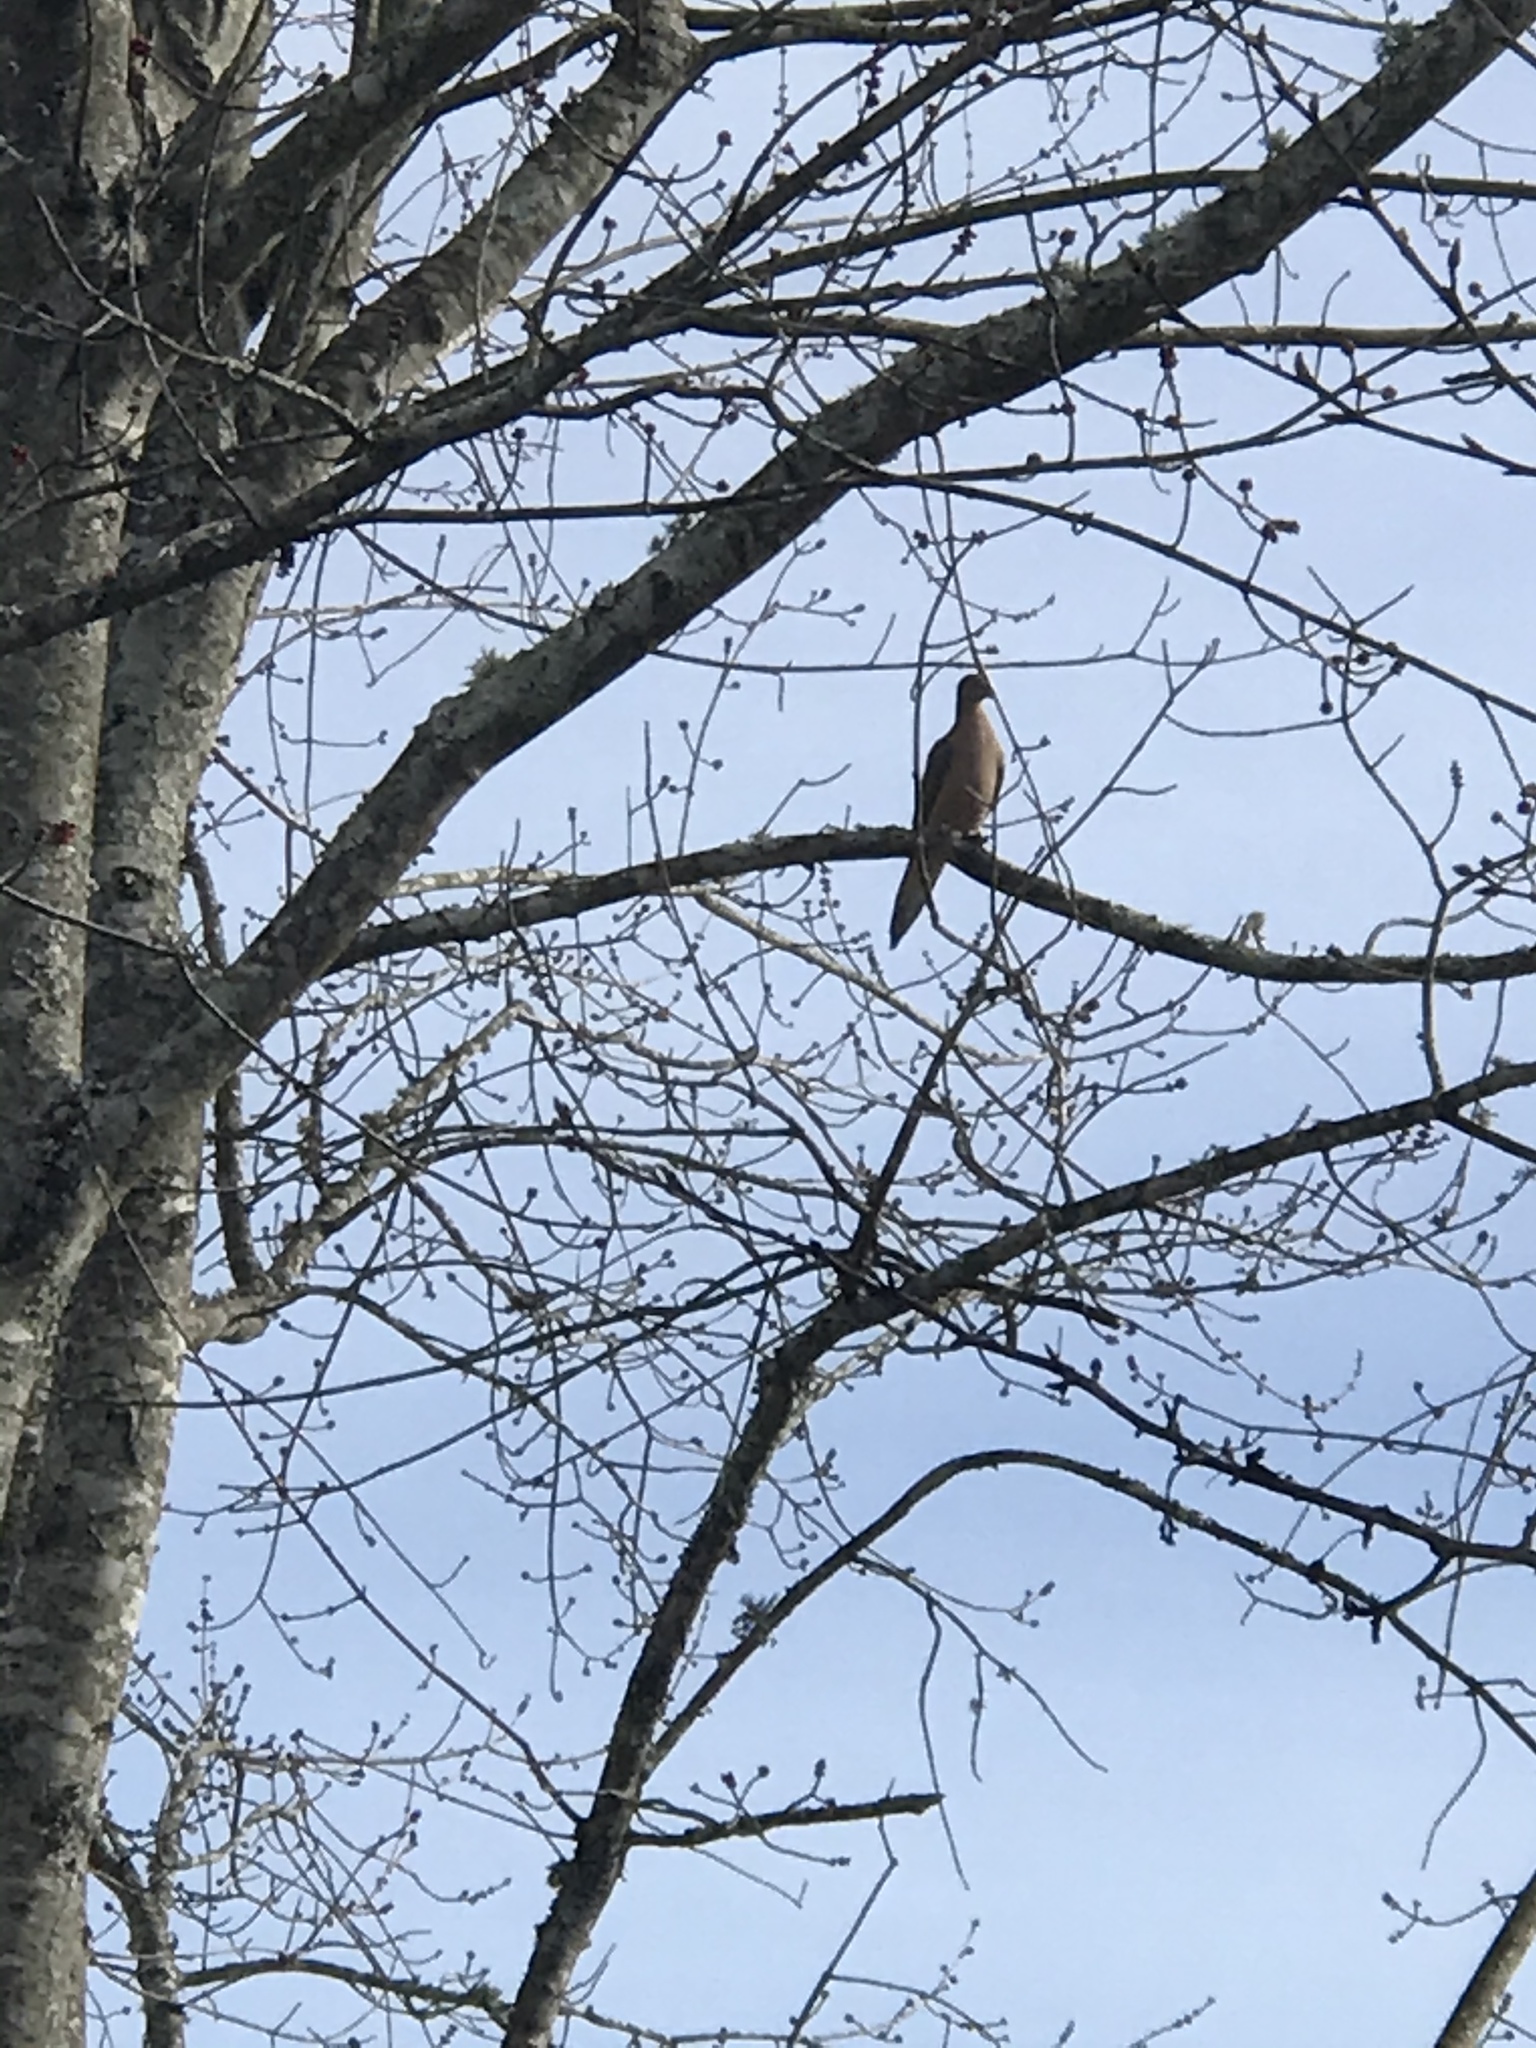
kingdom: Animalia
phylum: Chordata
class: Aves
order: Columbiformes
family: Columbidae
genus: Zenaida
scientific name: Zenaida macroura
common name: Mourning dove
